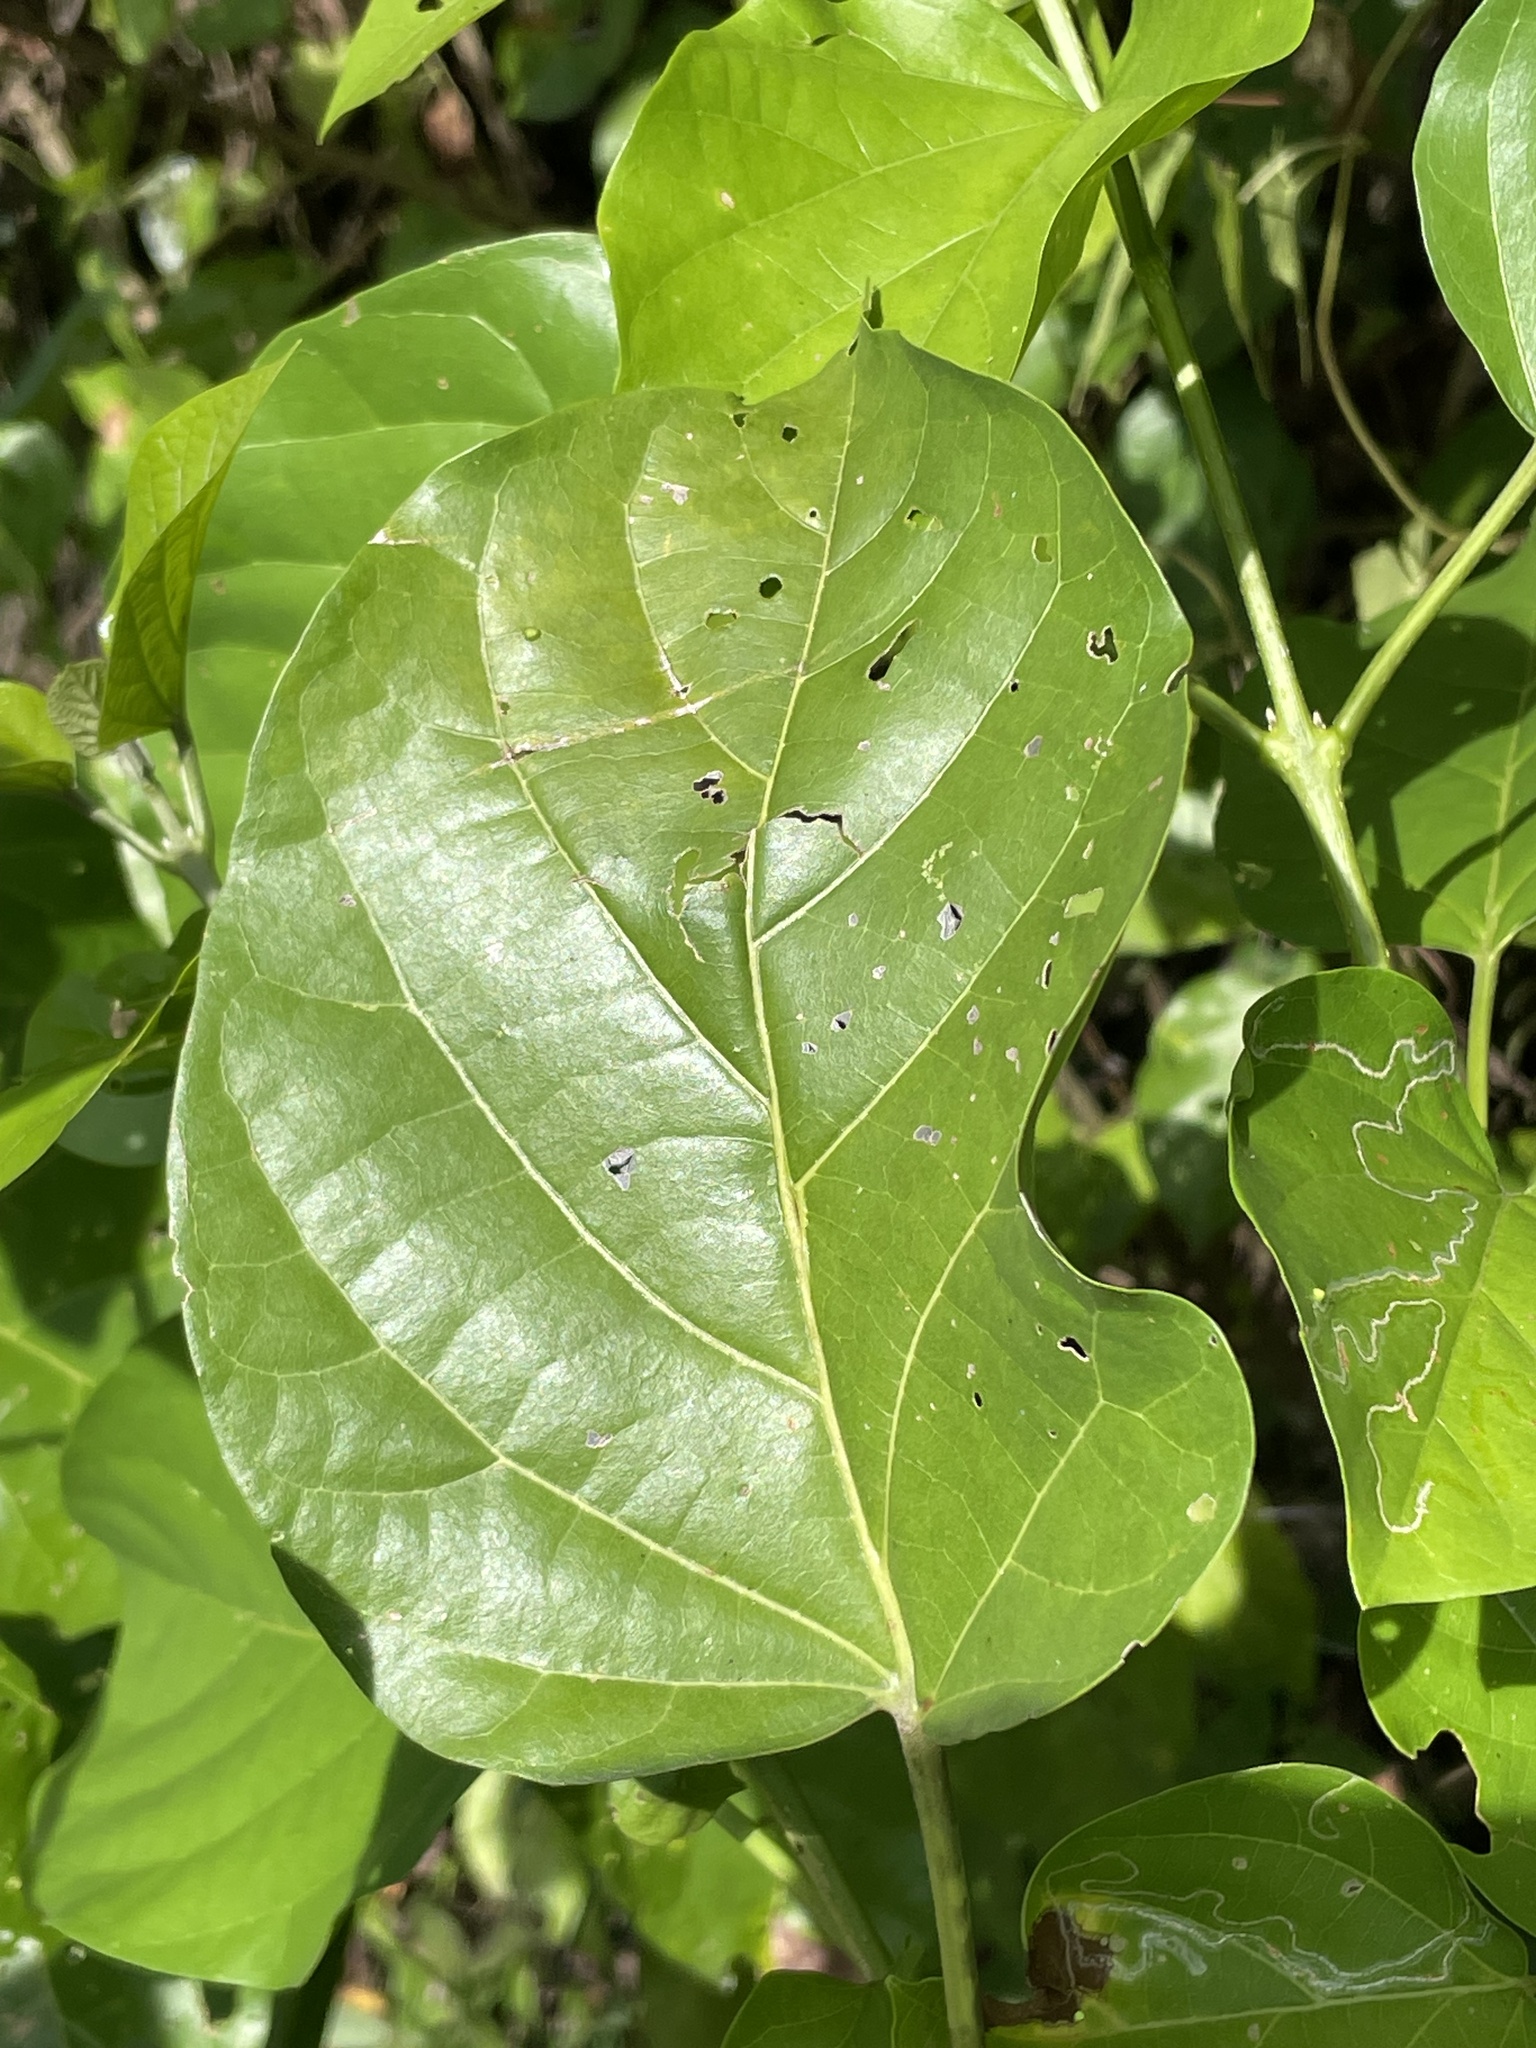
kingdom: Plantae
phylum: Tracheophyta
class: Magnoliopsida
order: Lamiales
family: Lamiaceae
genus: Premna
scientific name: Premna serratifolia
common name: Bastard guelder
